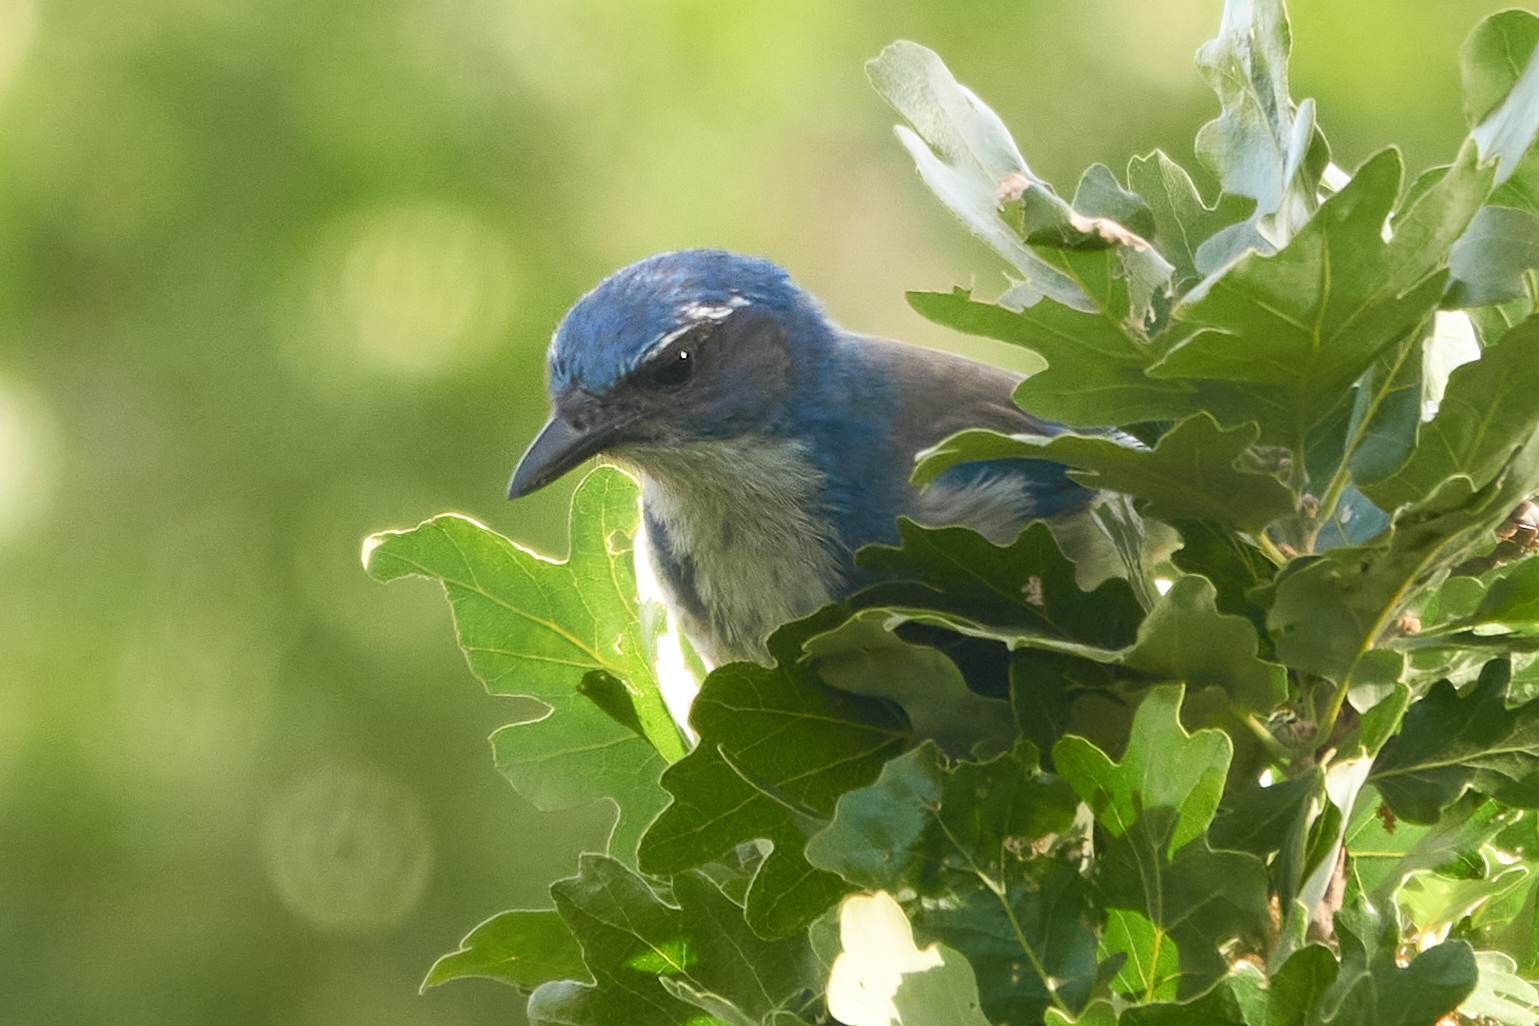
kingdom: Animalia
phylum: Chordata
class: Aves
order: Passeriformes
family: Corvidae
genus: Aphelocoma
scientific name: Aphelocoma californica
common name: California scrub-jay
